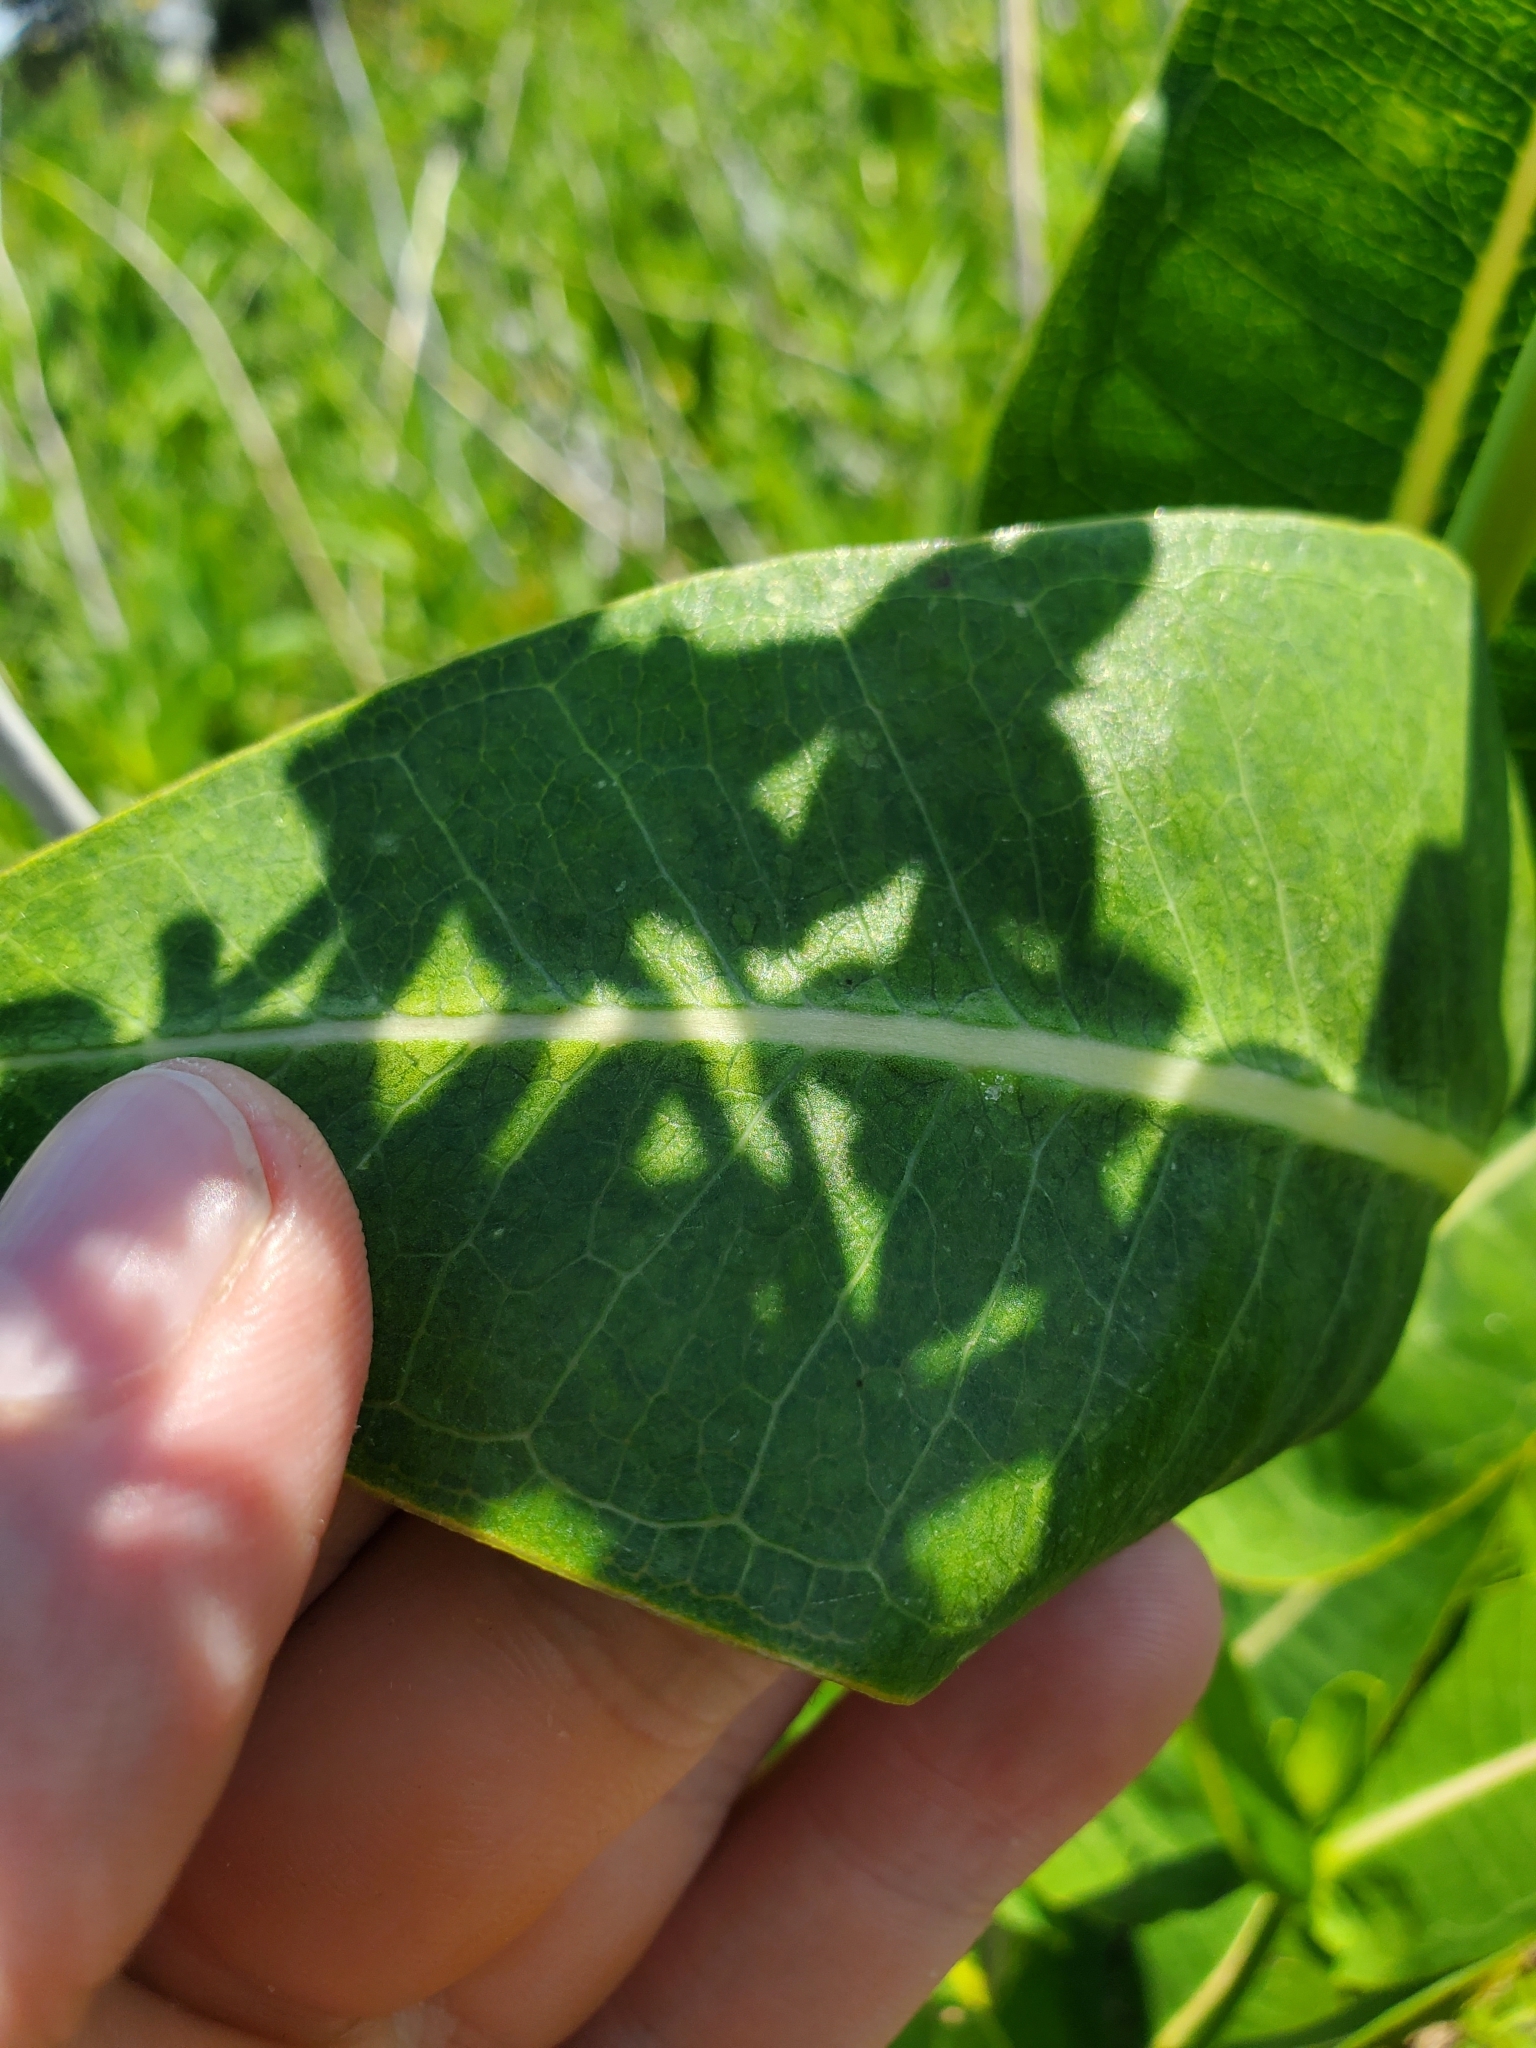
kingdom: Plantae
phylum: Tracheophyta
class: Magnoliopsida
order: Gentianales
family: Apocynaceae
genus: Asclepias
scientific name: Asclepias sullivantii
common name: Prairie milkweed
